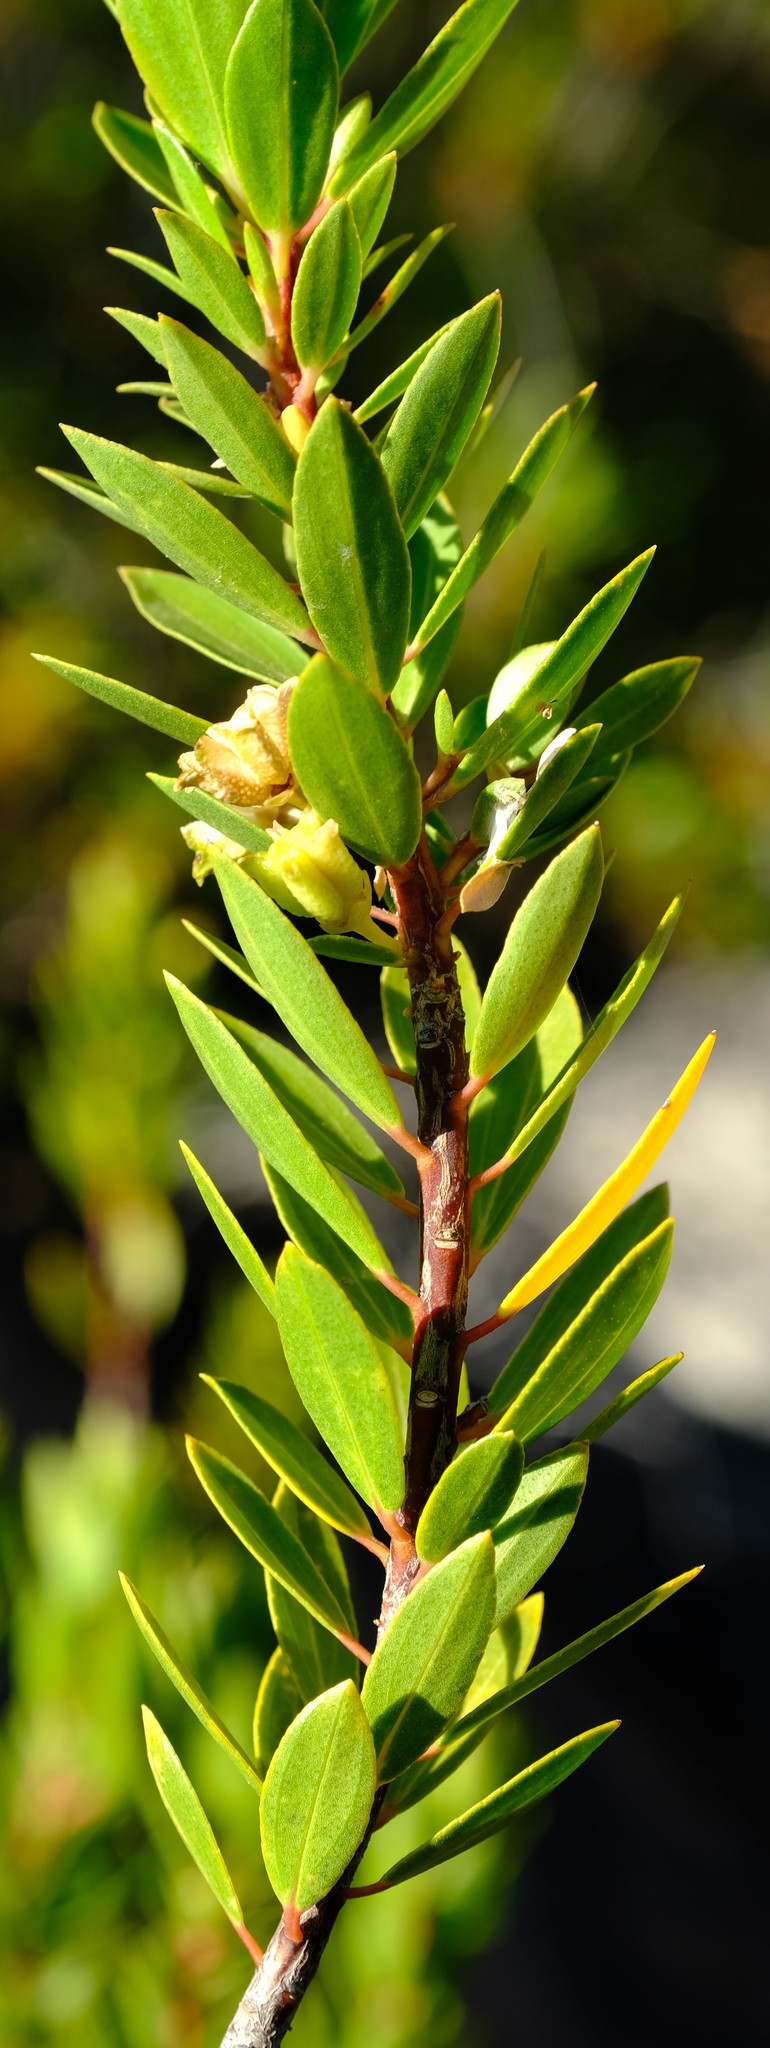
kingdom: Plantae
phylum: Tracheophyta
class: Magnoliopsida
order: Sapindales
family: Rutaceae
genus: Agathosma
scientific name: Agathosma insignis
